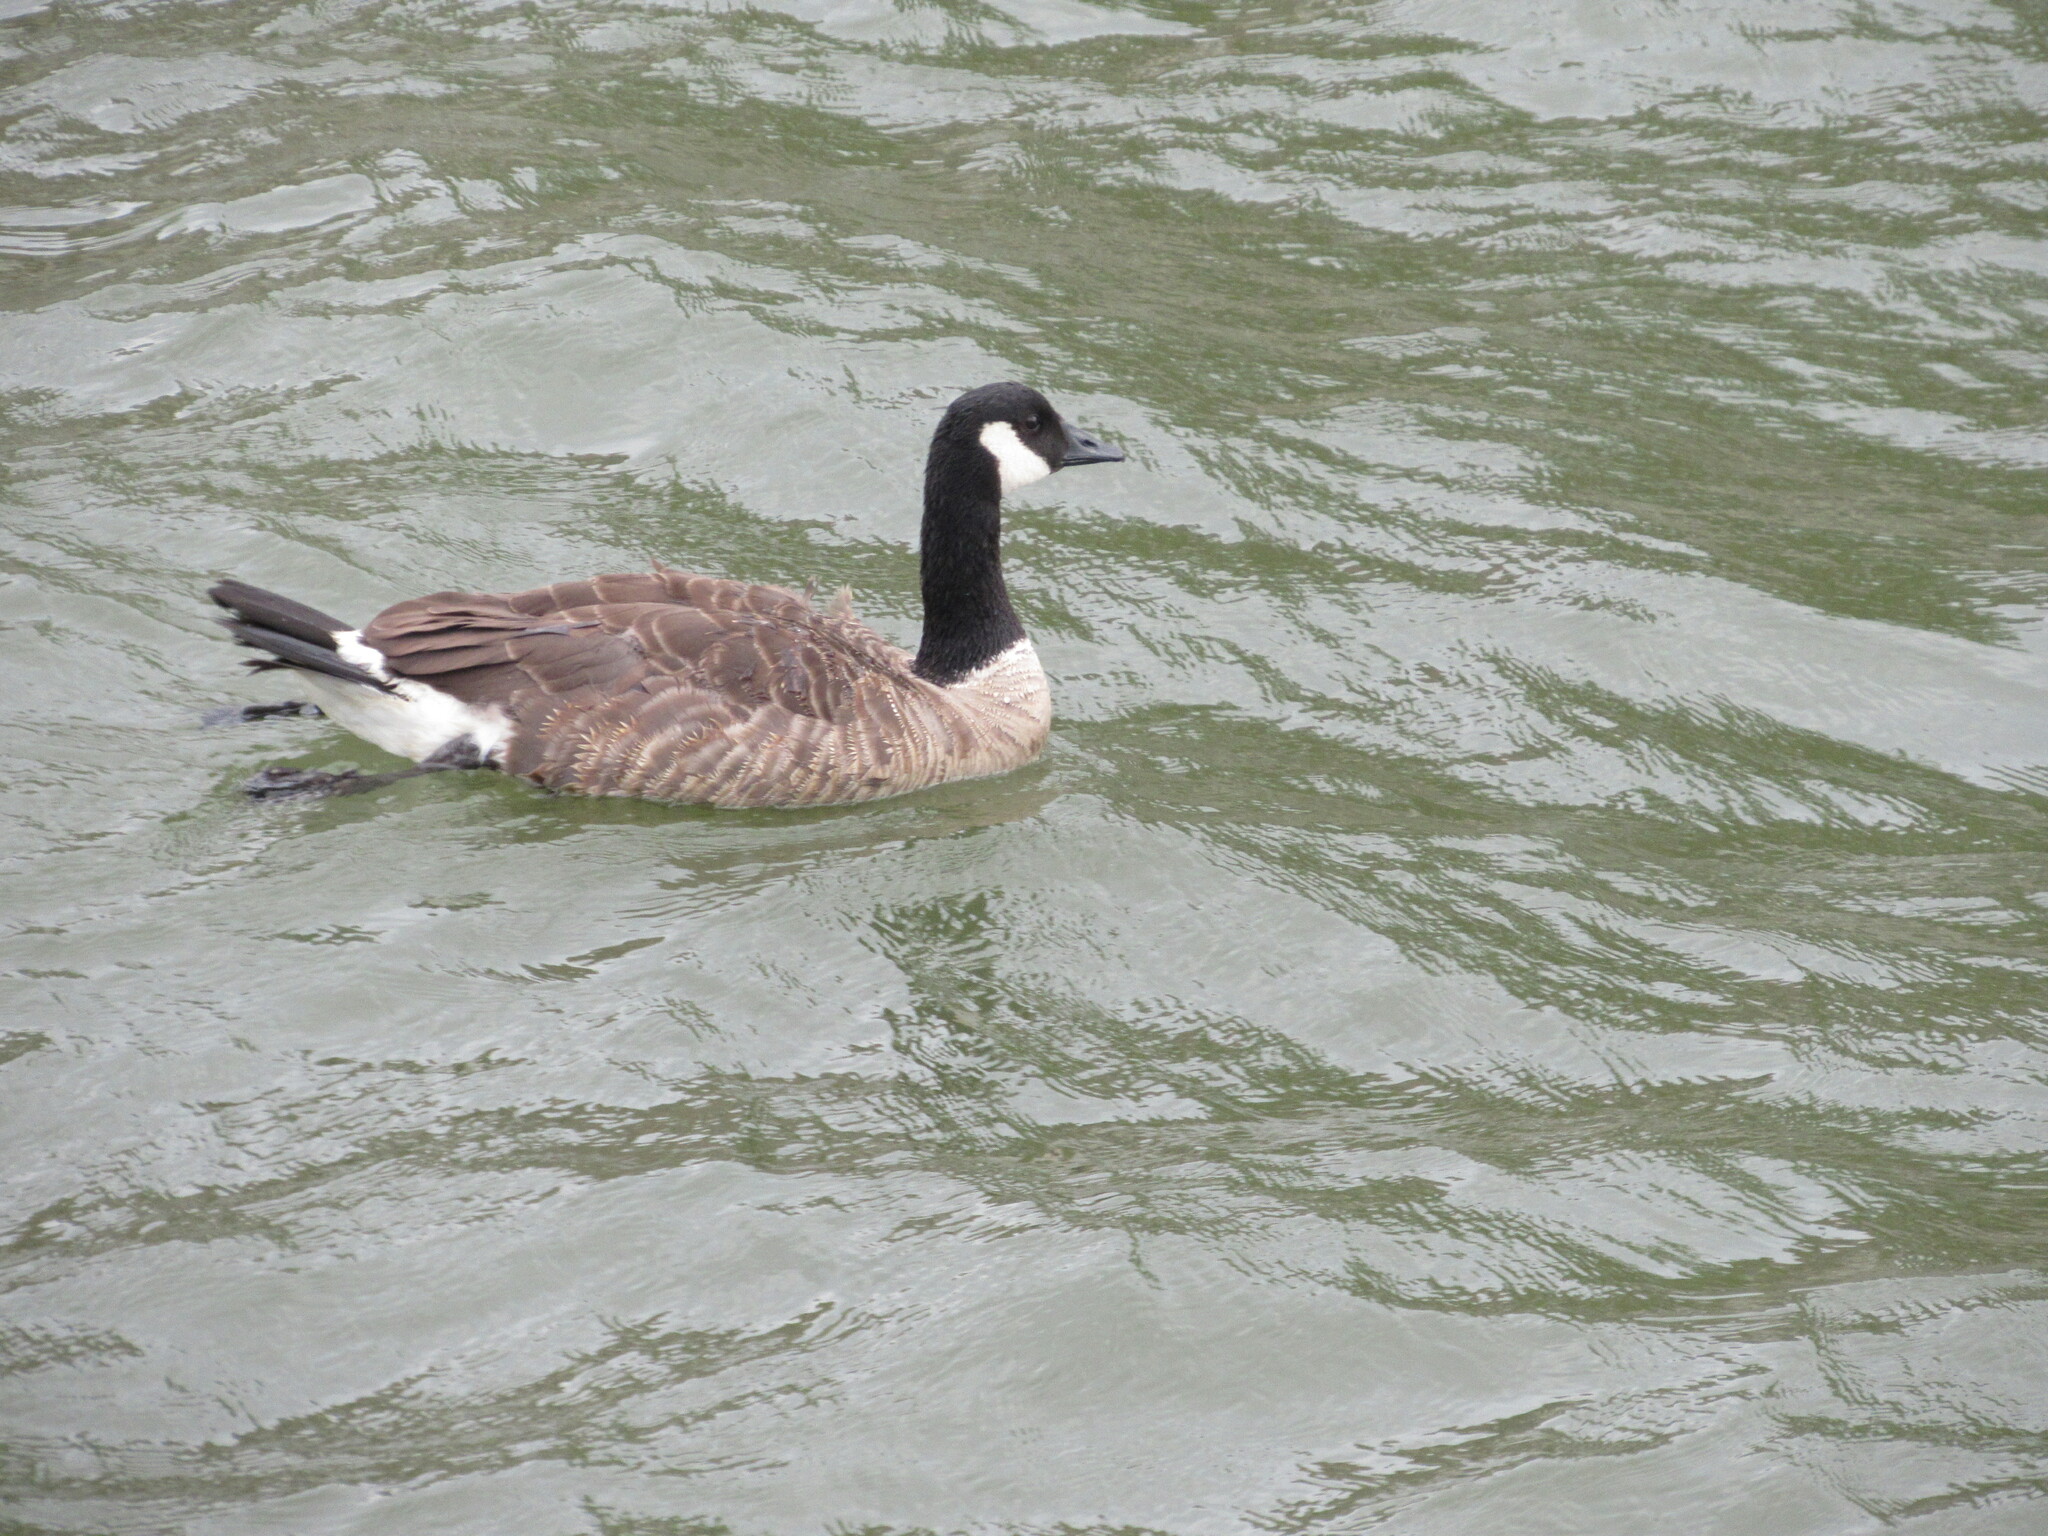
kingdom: Animalia
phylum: Chordata
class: Aves
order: Anseriformes
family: Anatidae
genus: Branta
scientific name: Branta canadensis
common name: Canada goose
